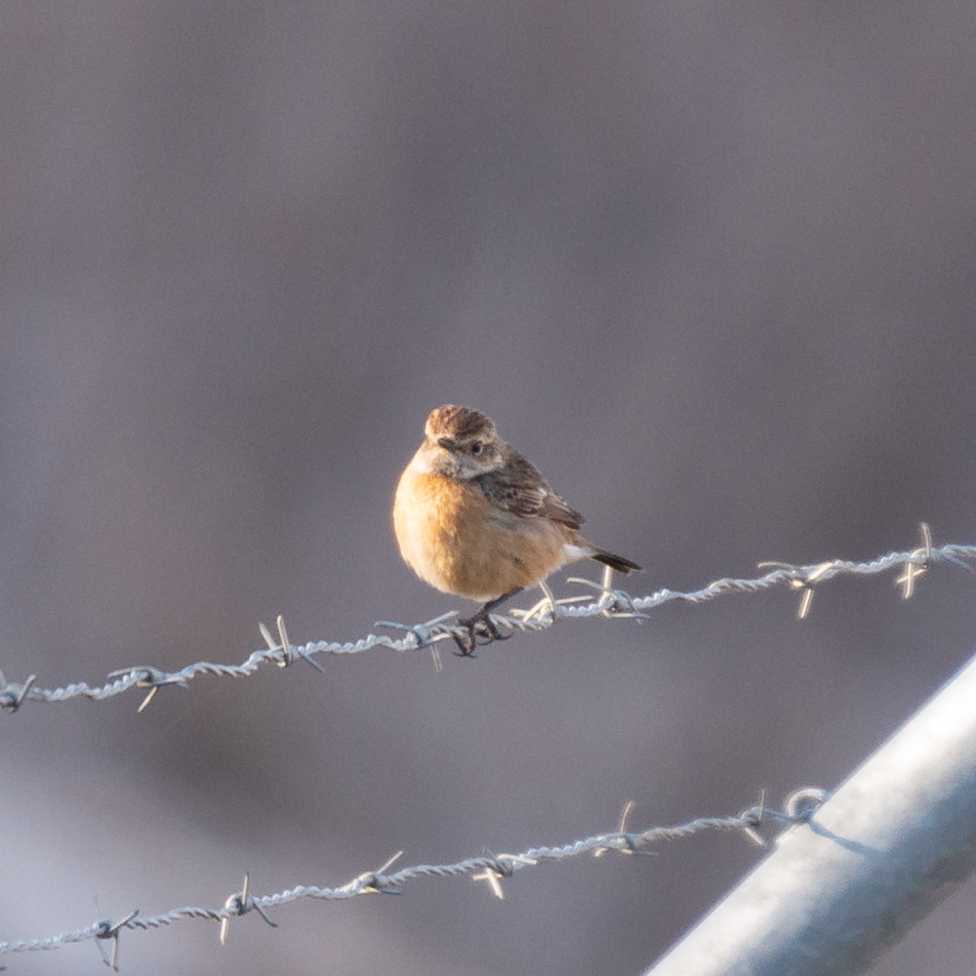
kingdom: Animalia
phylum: Chordata
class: Aves
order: Passeriformes
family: Muscicapidae
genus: Saxicola
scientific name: Saxicola rubicola
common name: European stonechat
